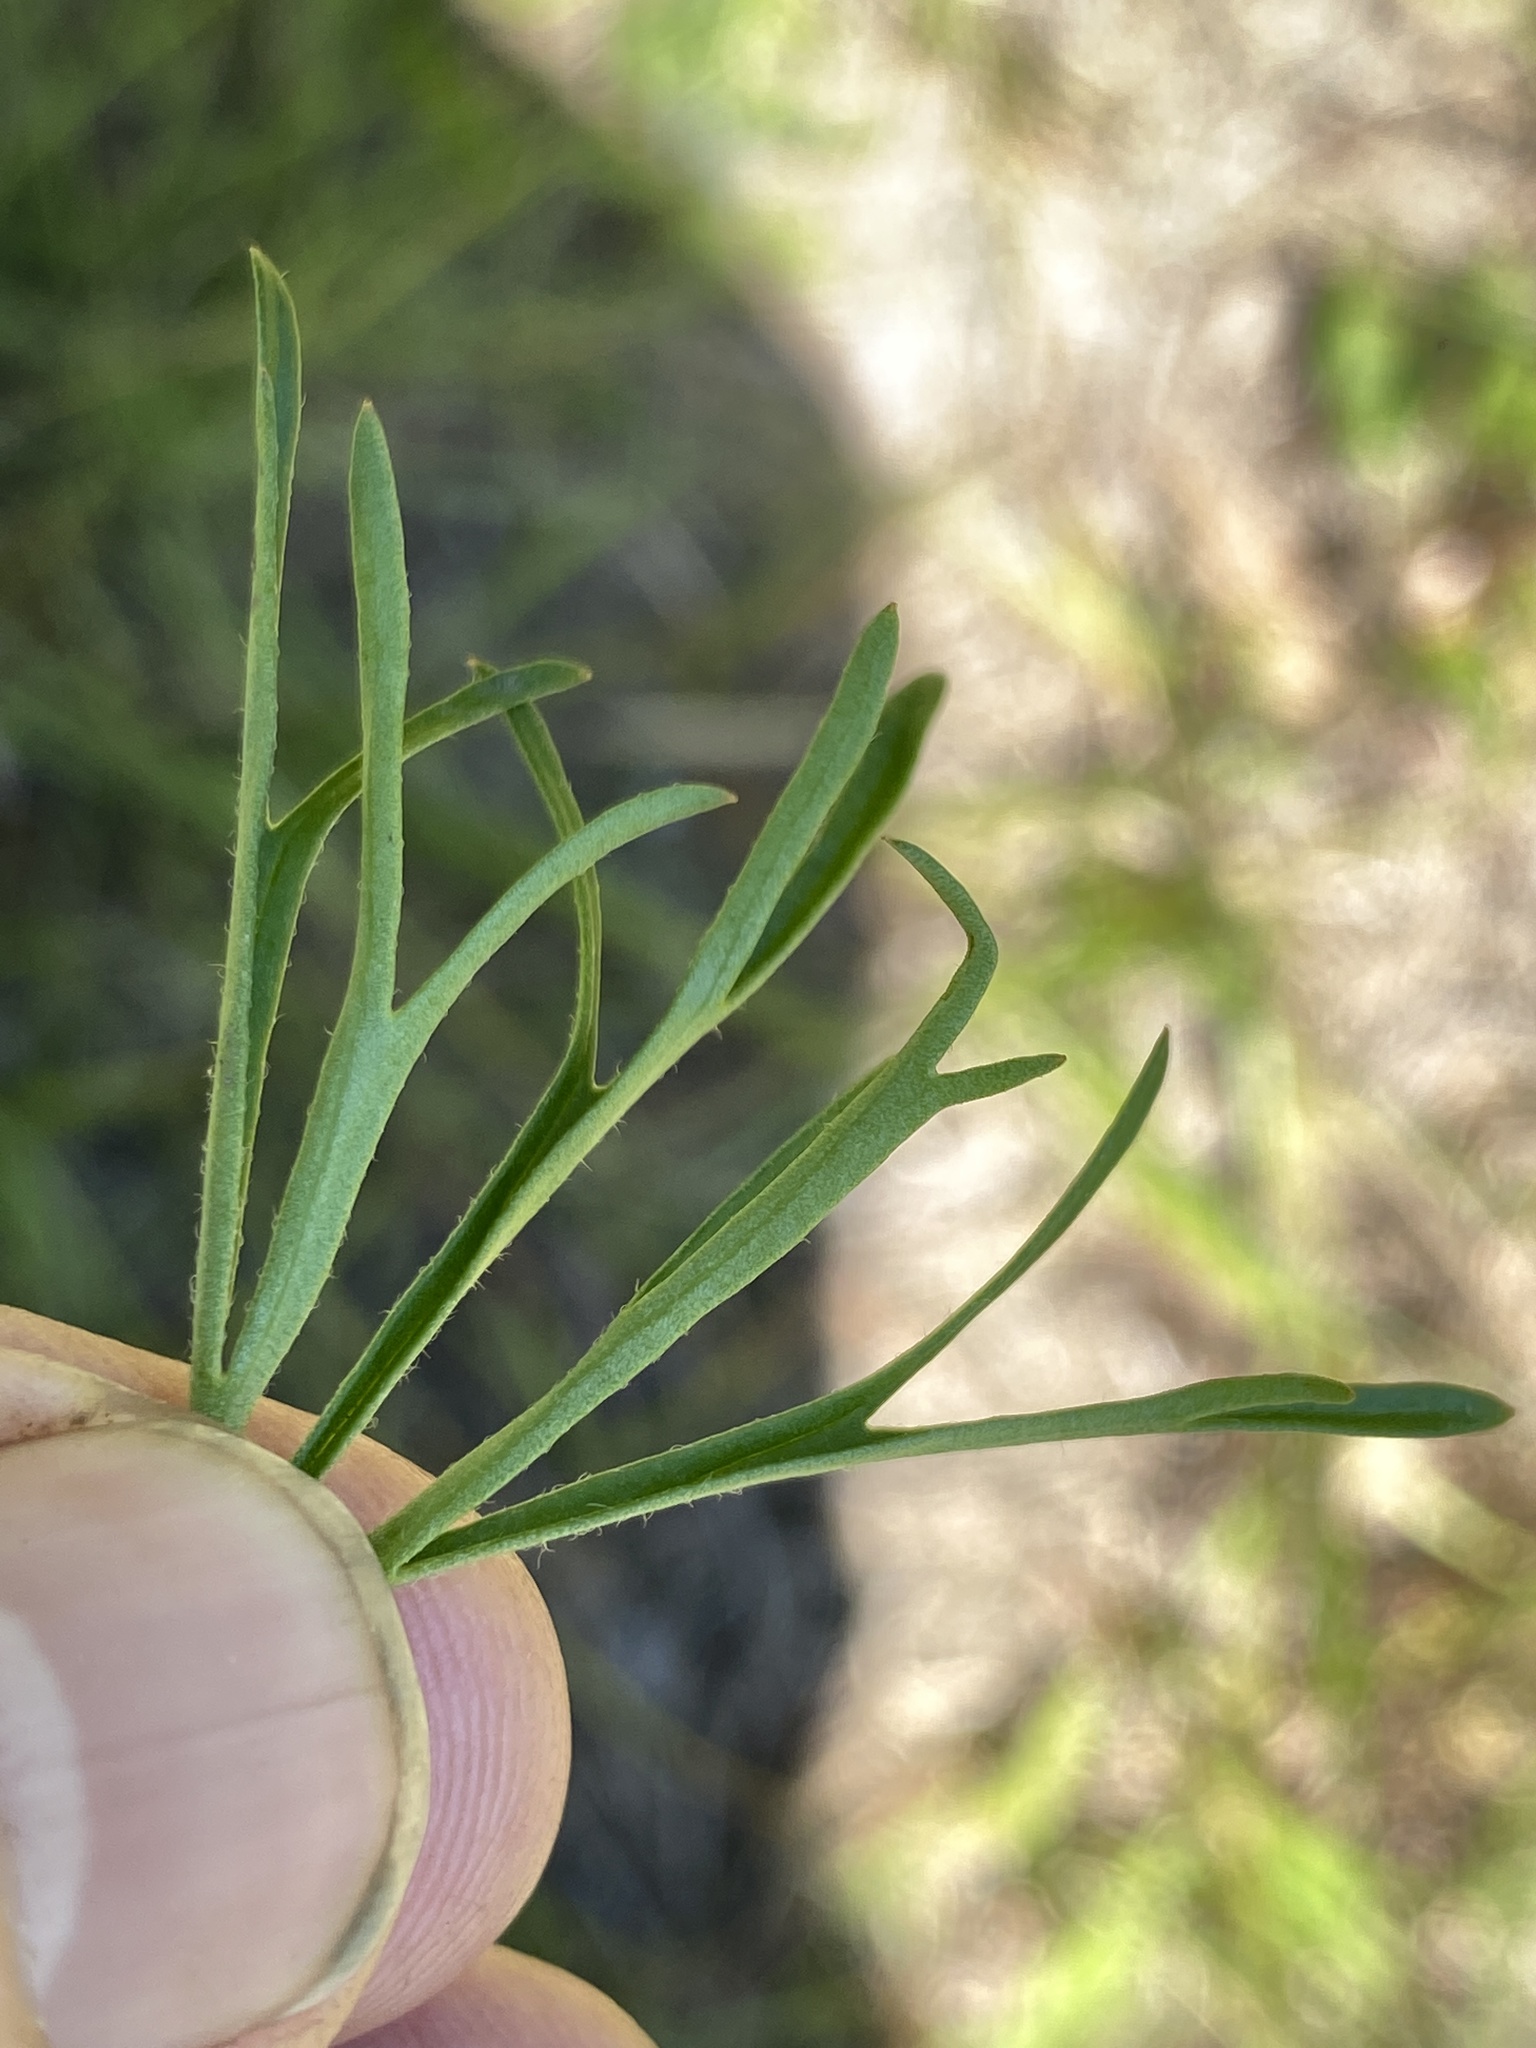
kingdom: Plantae
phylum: Tracheophyta
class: Magnoliopsida
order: Ranunculales
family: Ranunculaceae
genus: Delphinium
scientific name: Delphinium carolinianum
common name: Carolina larkspur
